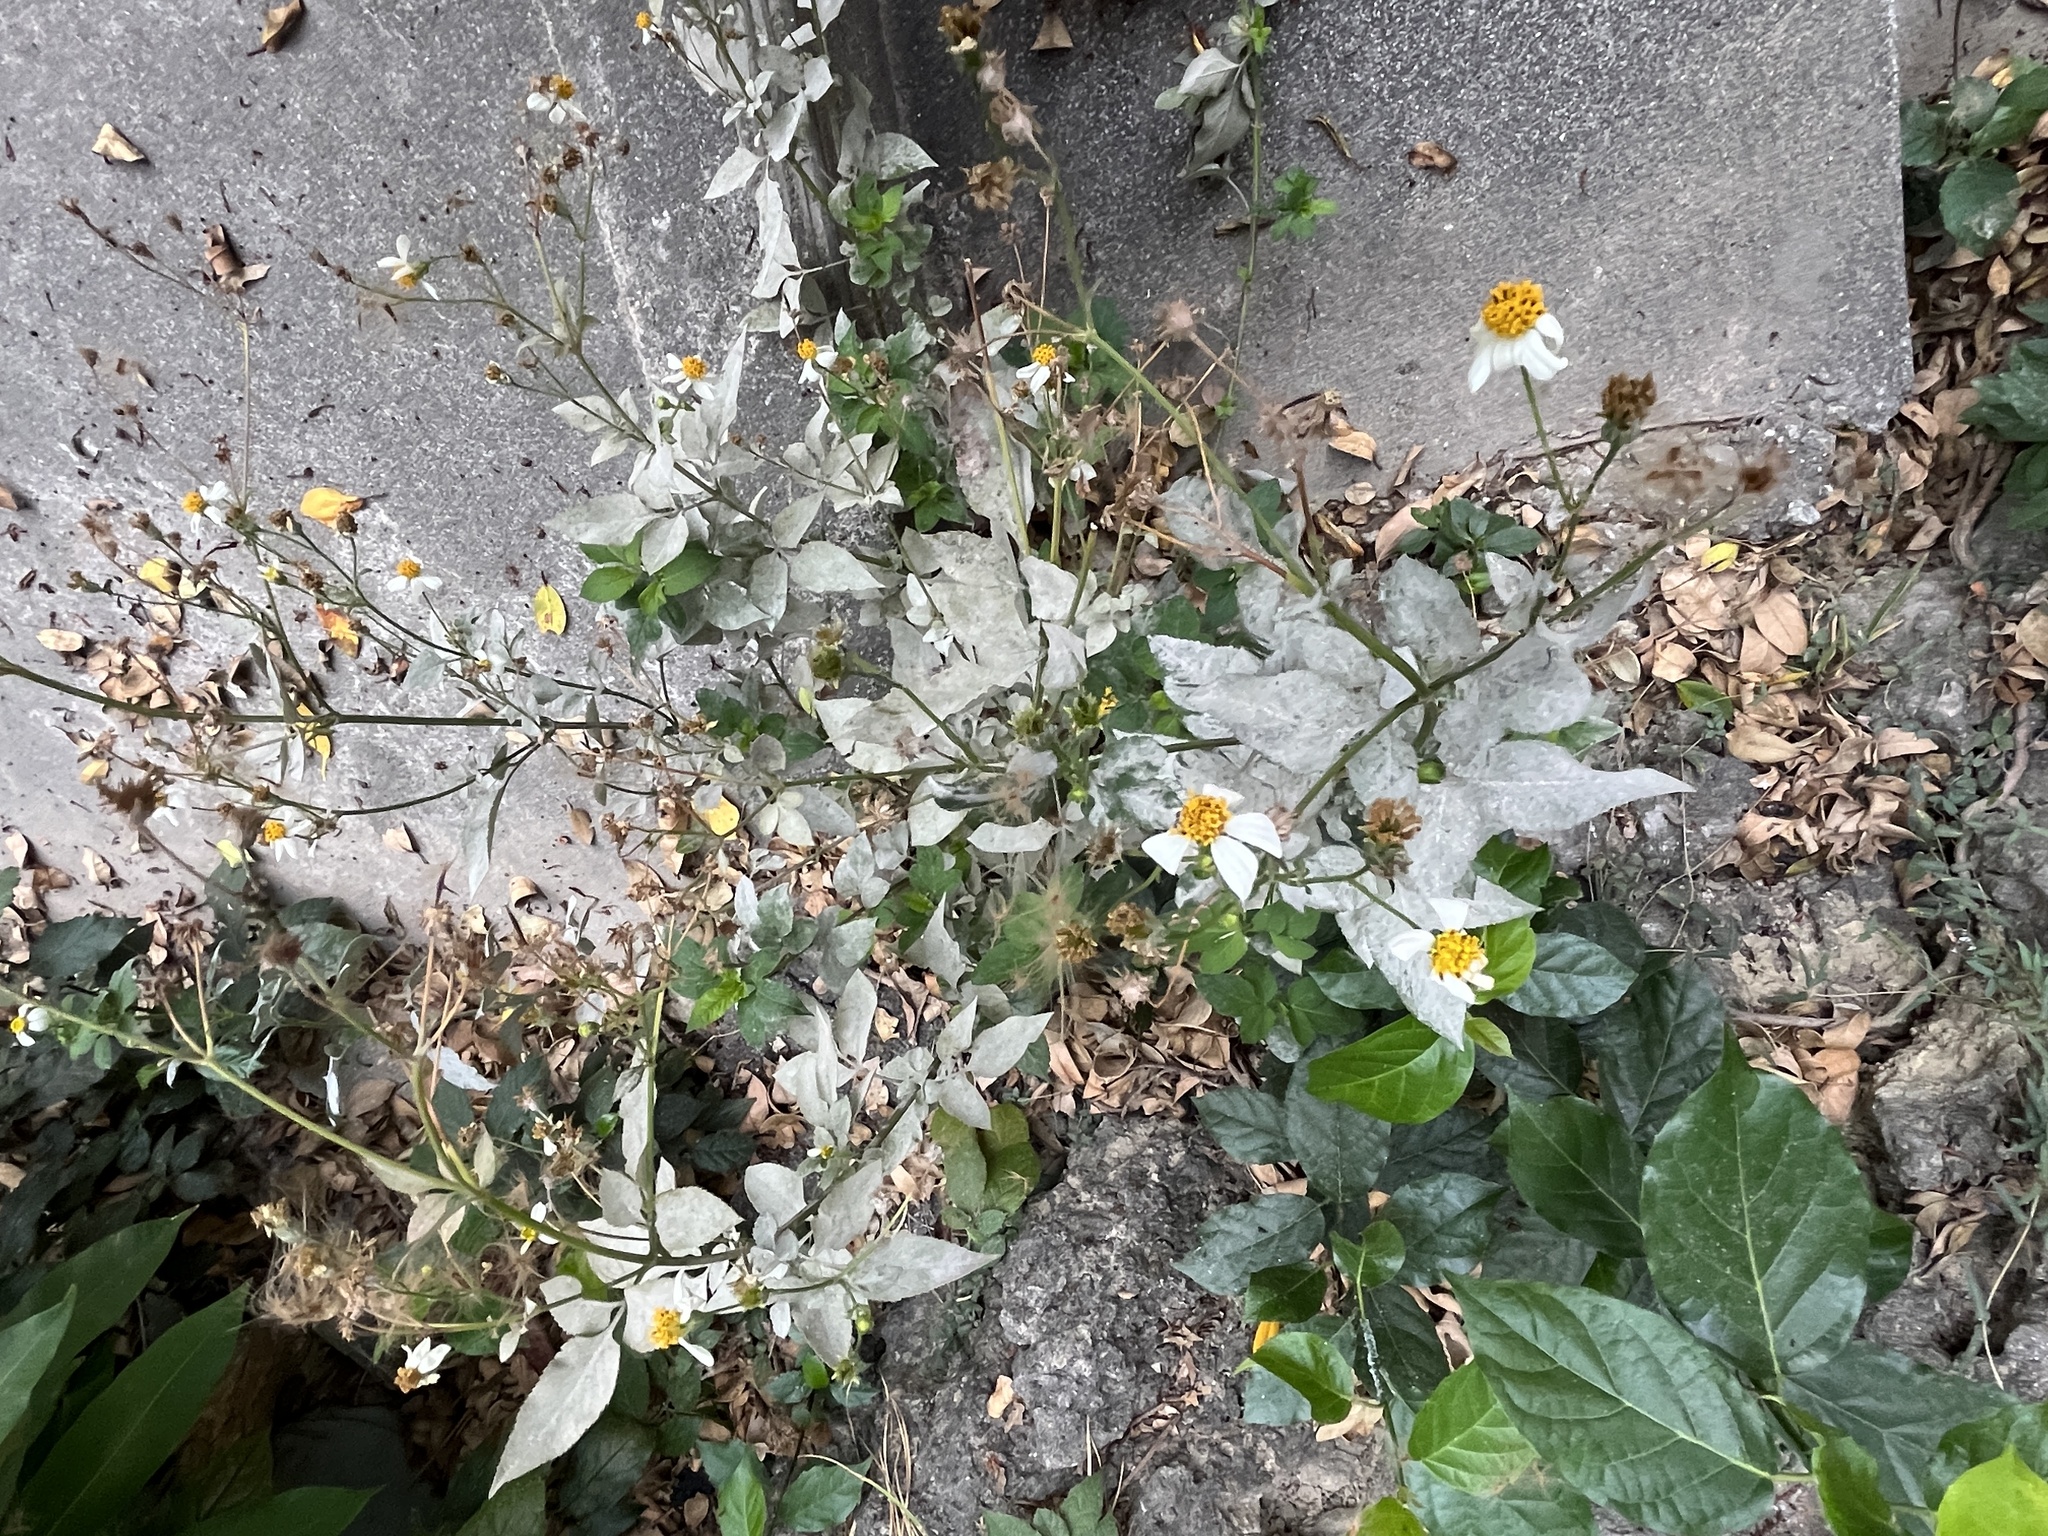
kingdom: Plantae
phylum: Tracheophyta
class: Magnoliopsida
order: Asterales
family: Asteraceae
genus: Bidens
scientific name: Bidens alba
